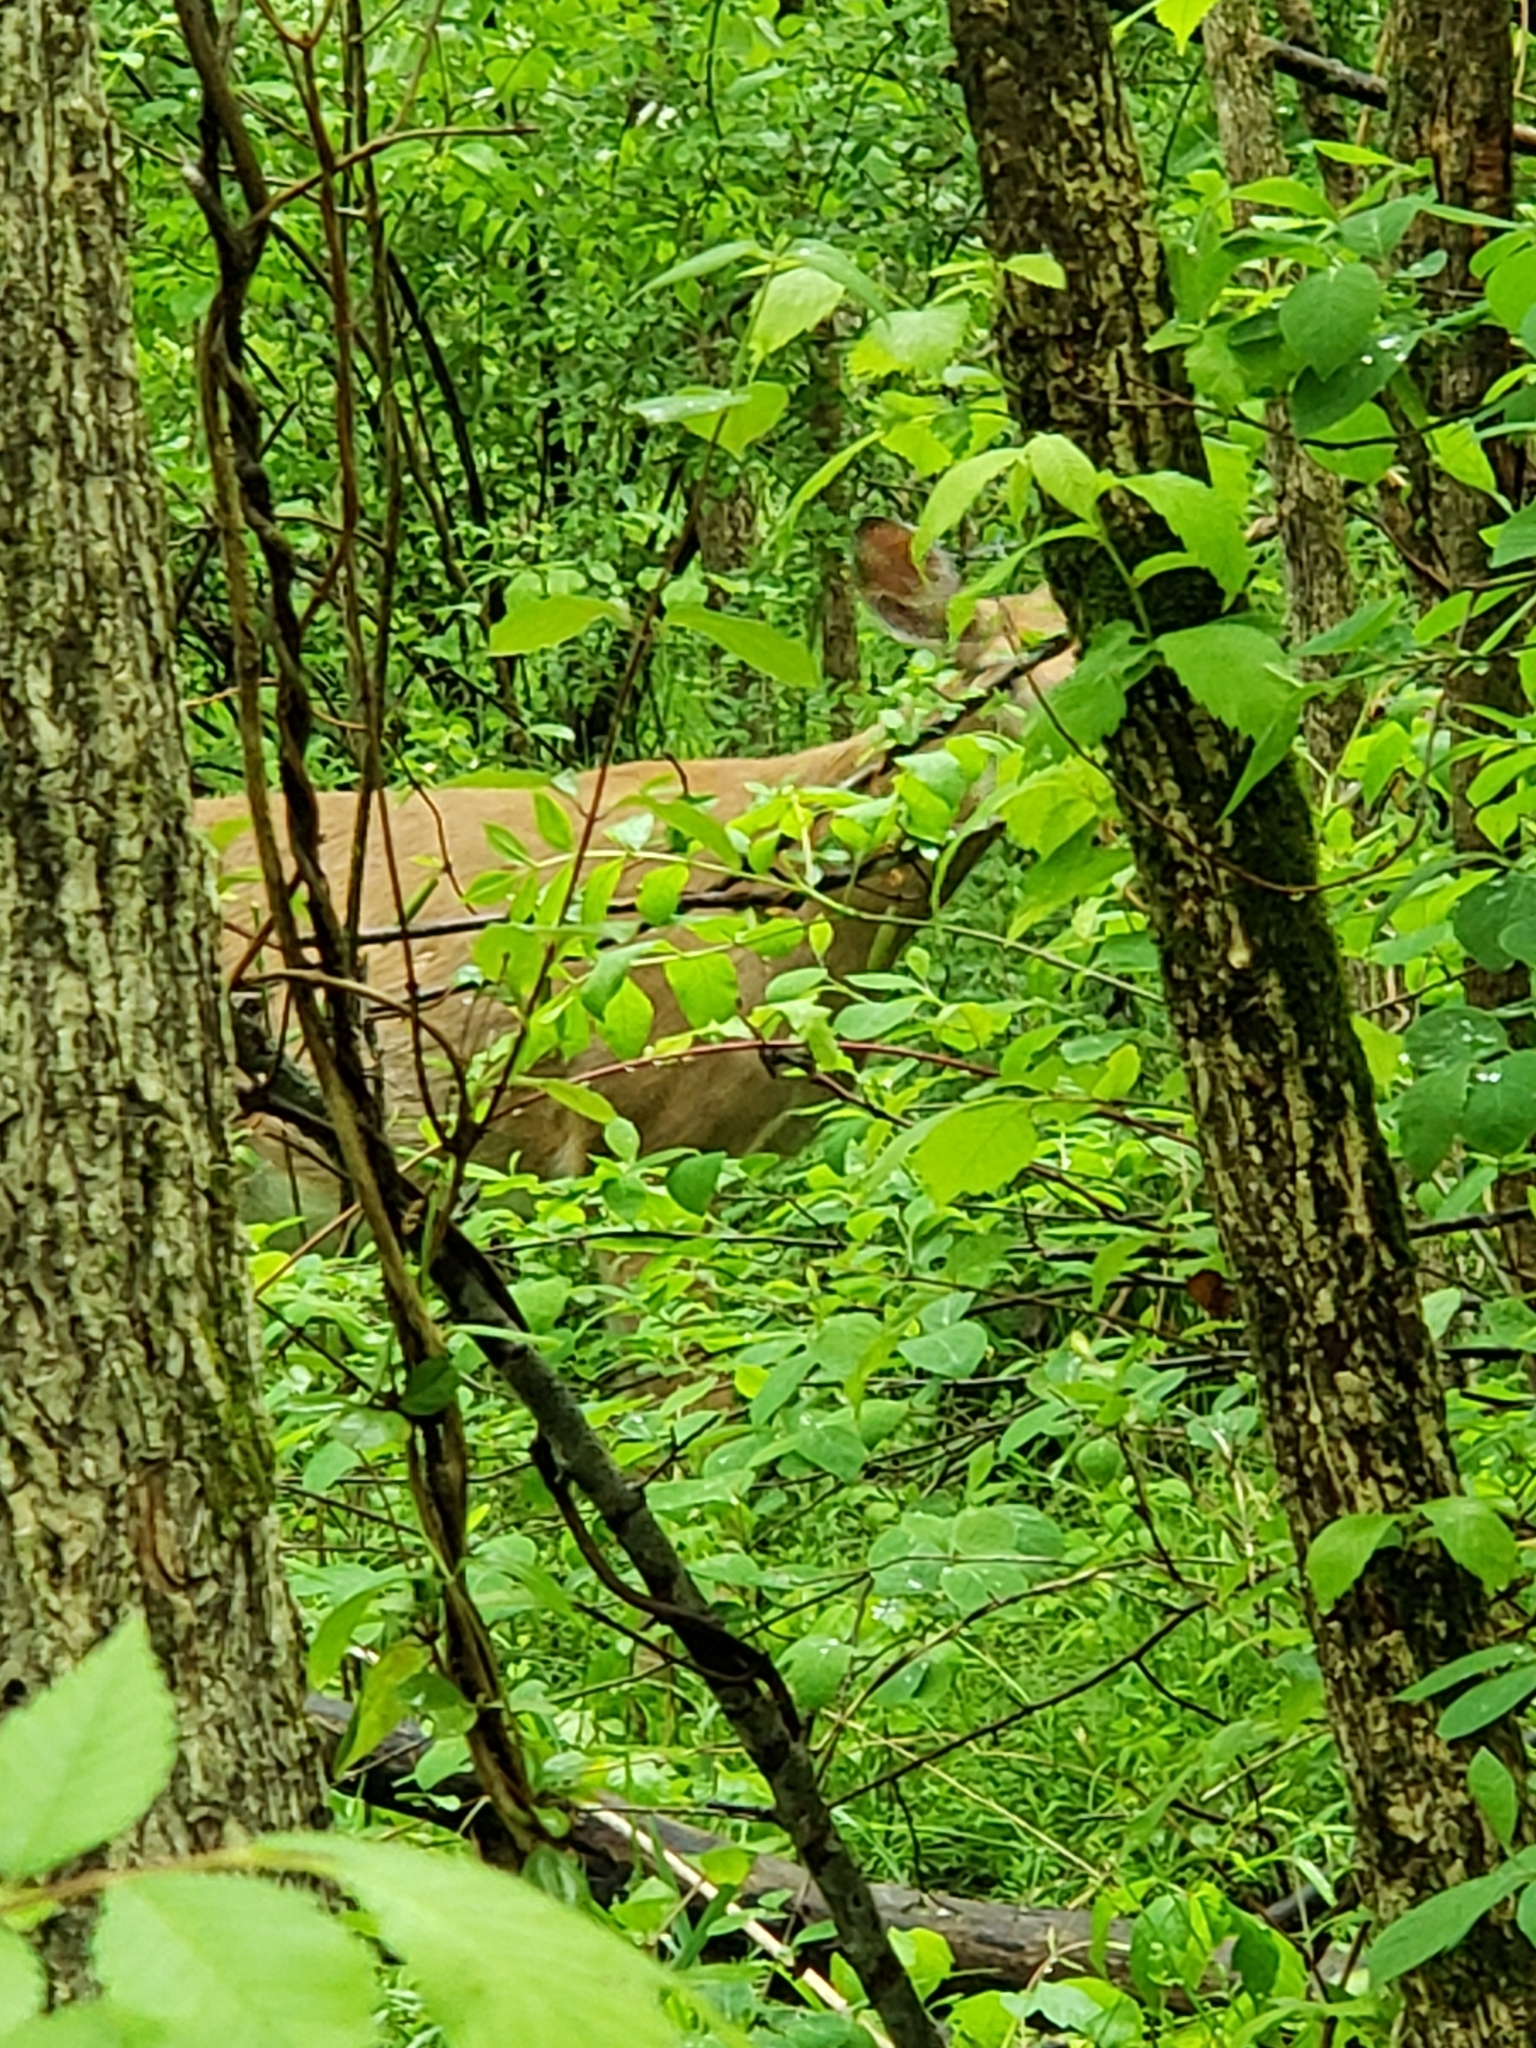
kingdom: Animalia
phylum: Chordata
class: Mammalia
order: Artiodactyla
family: Cervidae
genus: Odocoileus
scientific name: Odocoileus virginianus
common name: White-tailed deer
